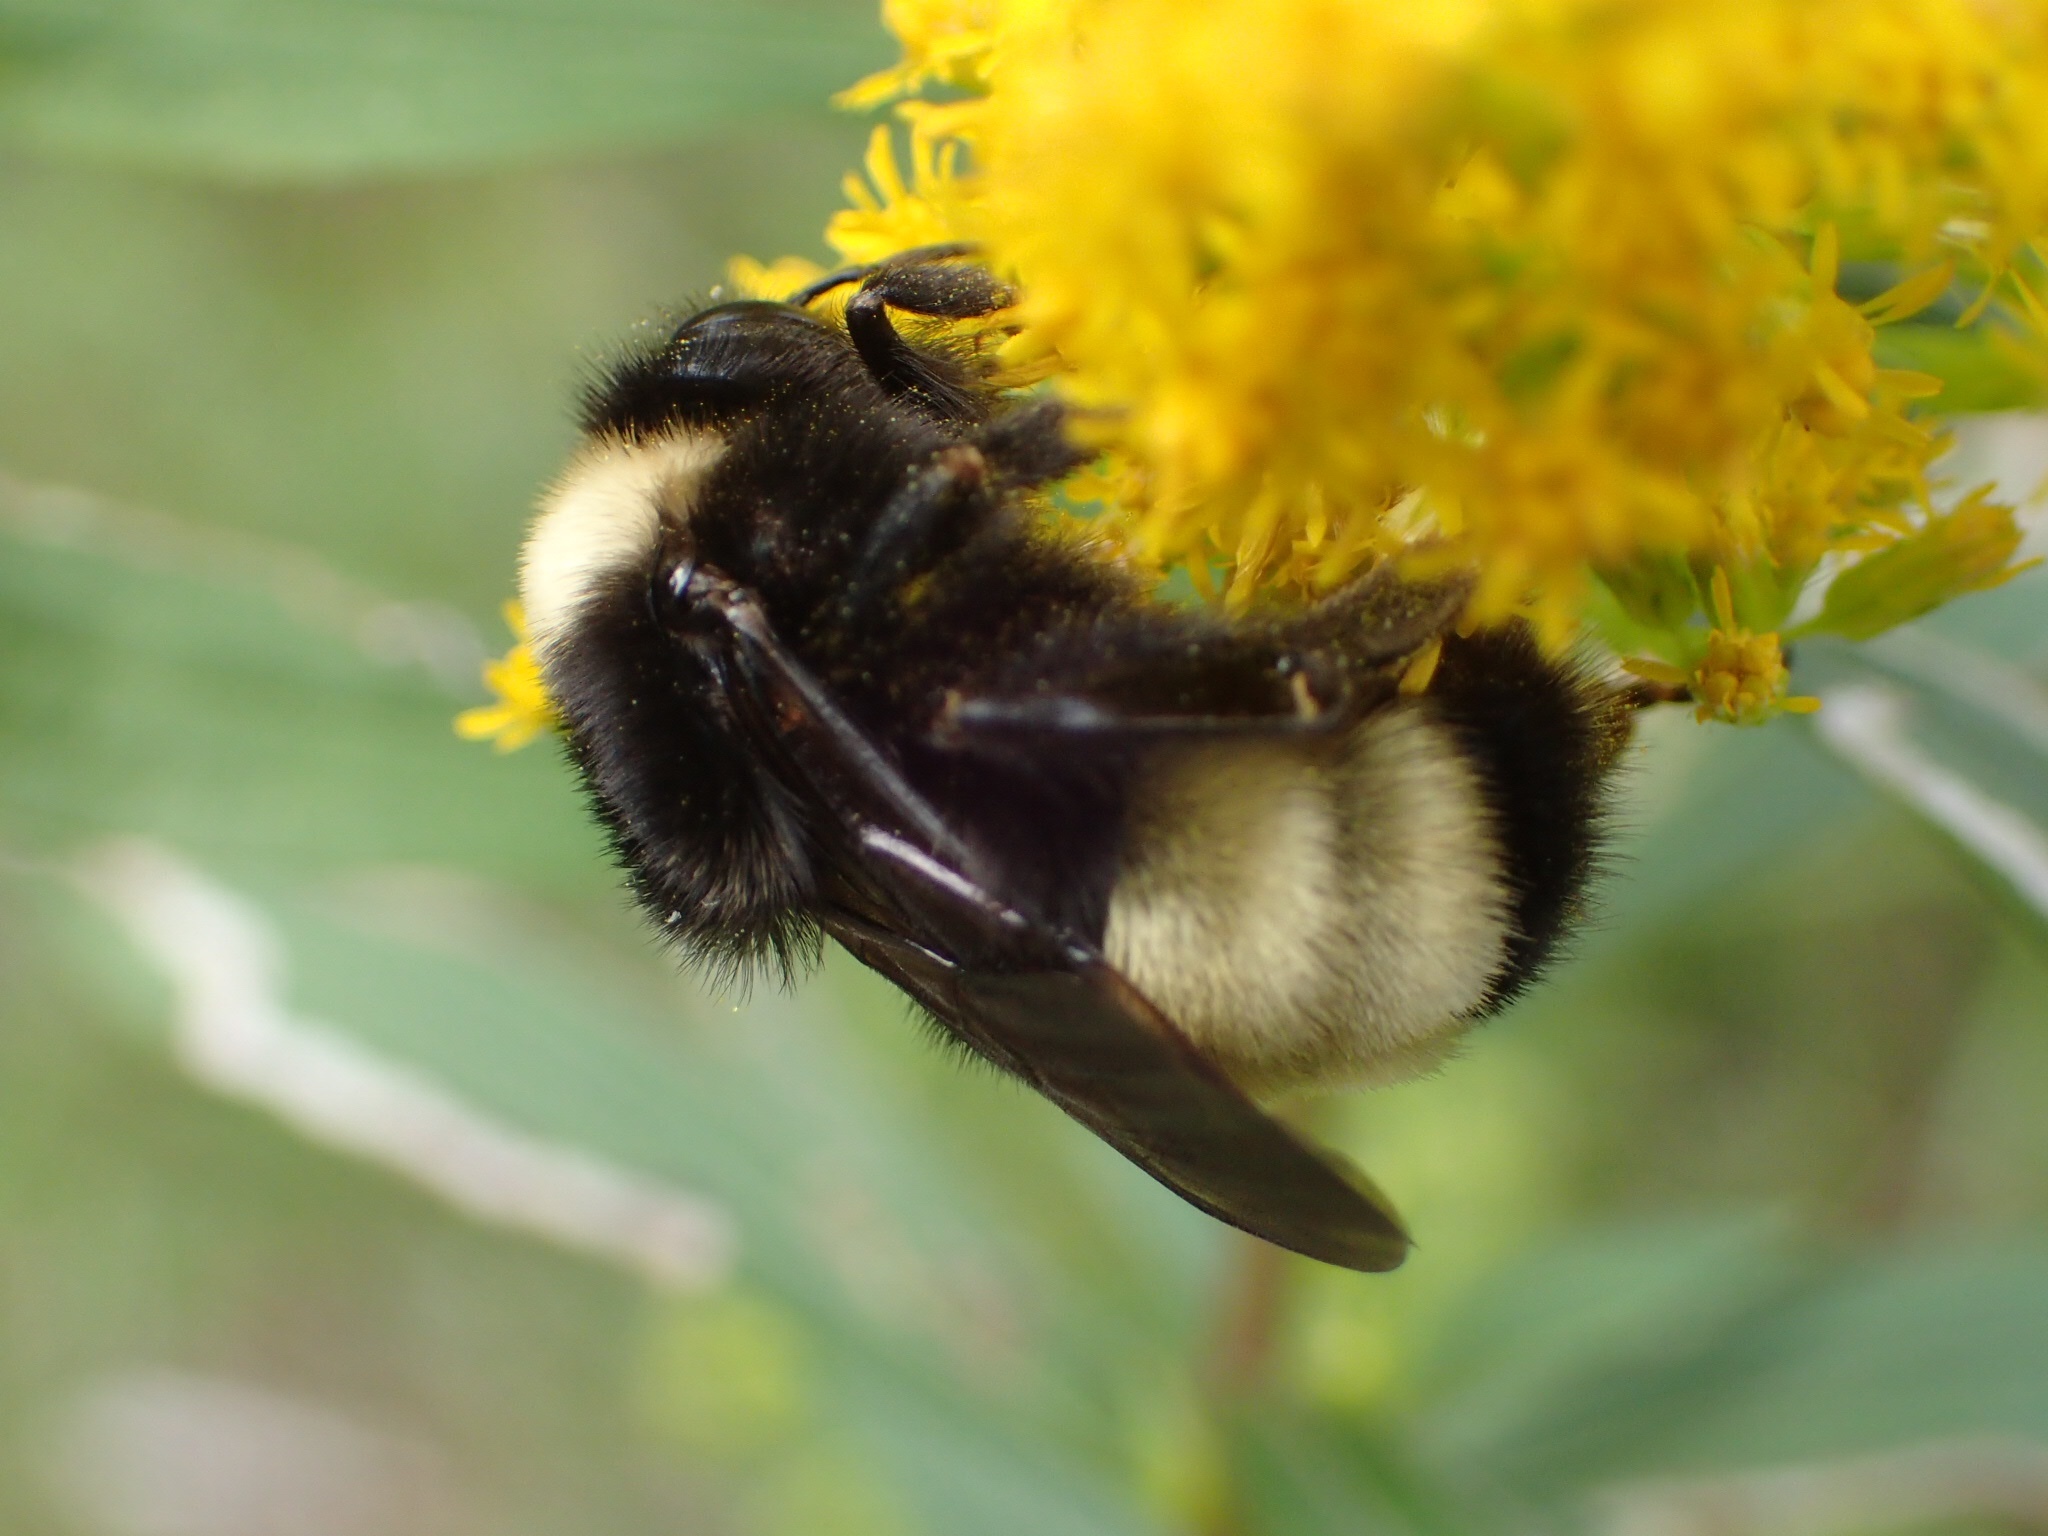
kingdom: Animalia
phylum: Arthropoda
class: Insecta
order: Hymenoptera
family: Apidae
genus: Bombus
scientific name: Bombus terricola
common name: Yellow-banded bumble bee
